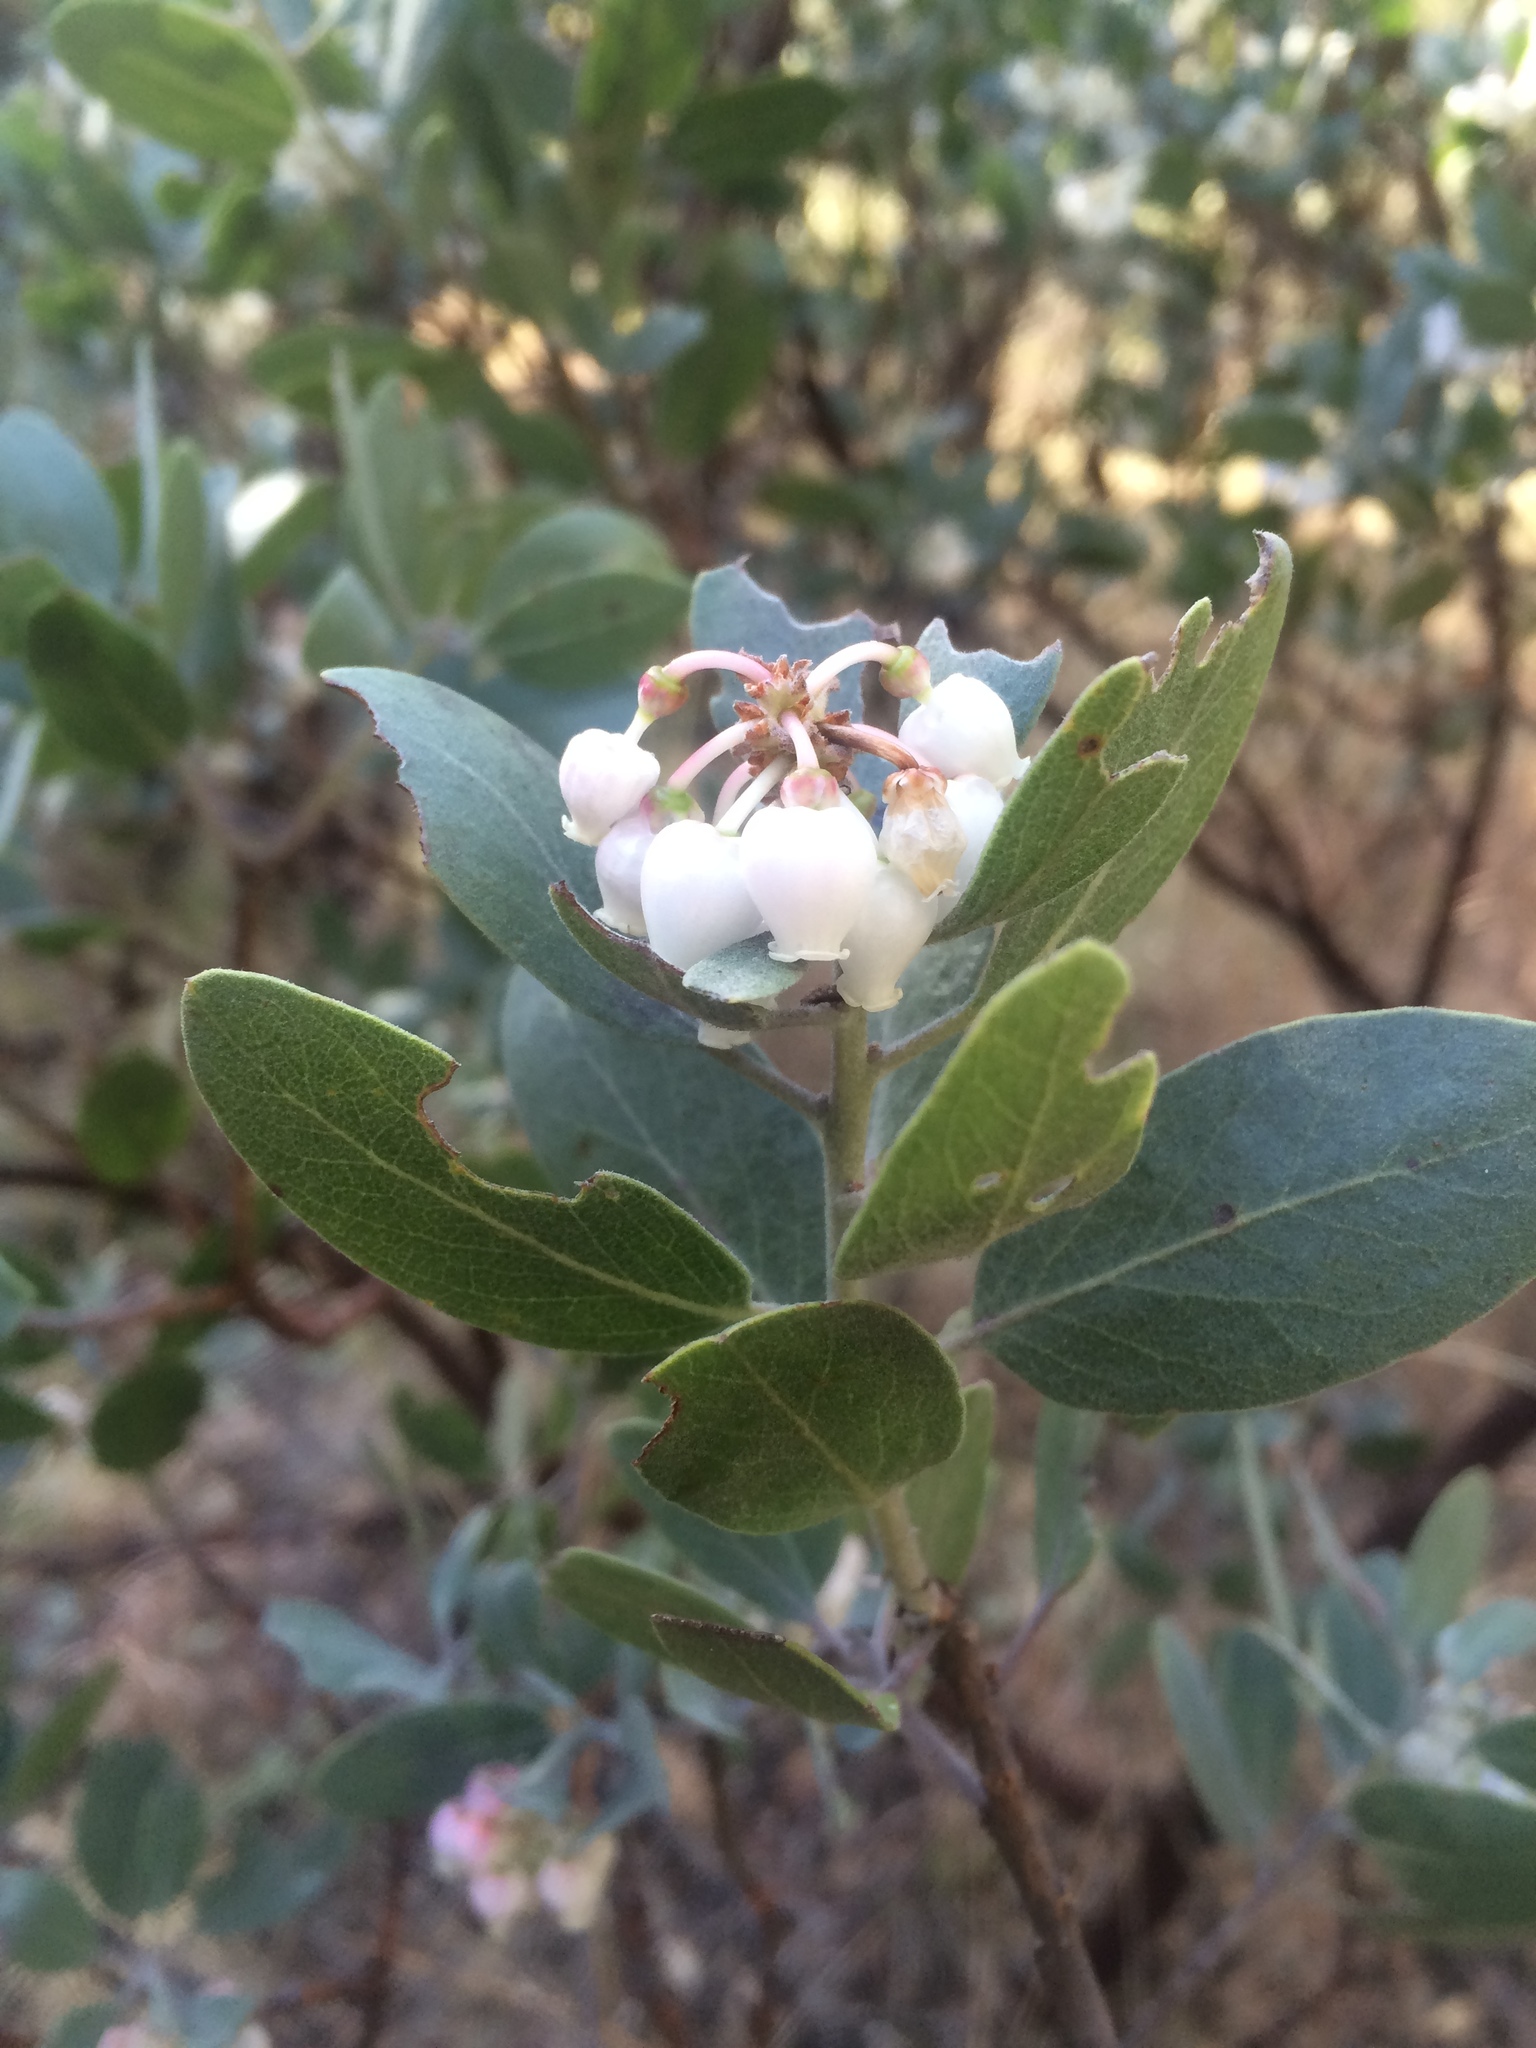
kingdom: Plantae
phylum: Tracheophyta
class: Magnoliopsida
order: Ericales
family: Ericaceae
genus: Arctostaphylos
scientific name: Arctostaphylos pungens
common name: Mexican manzanita
